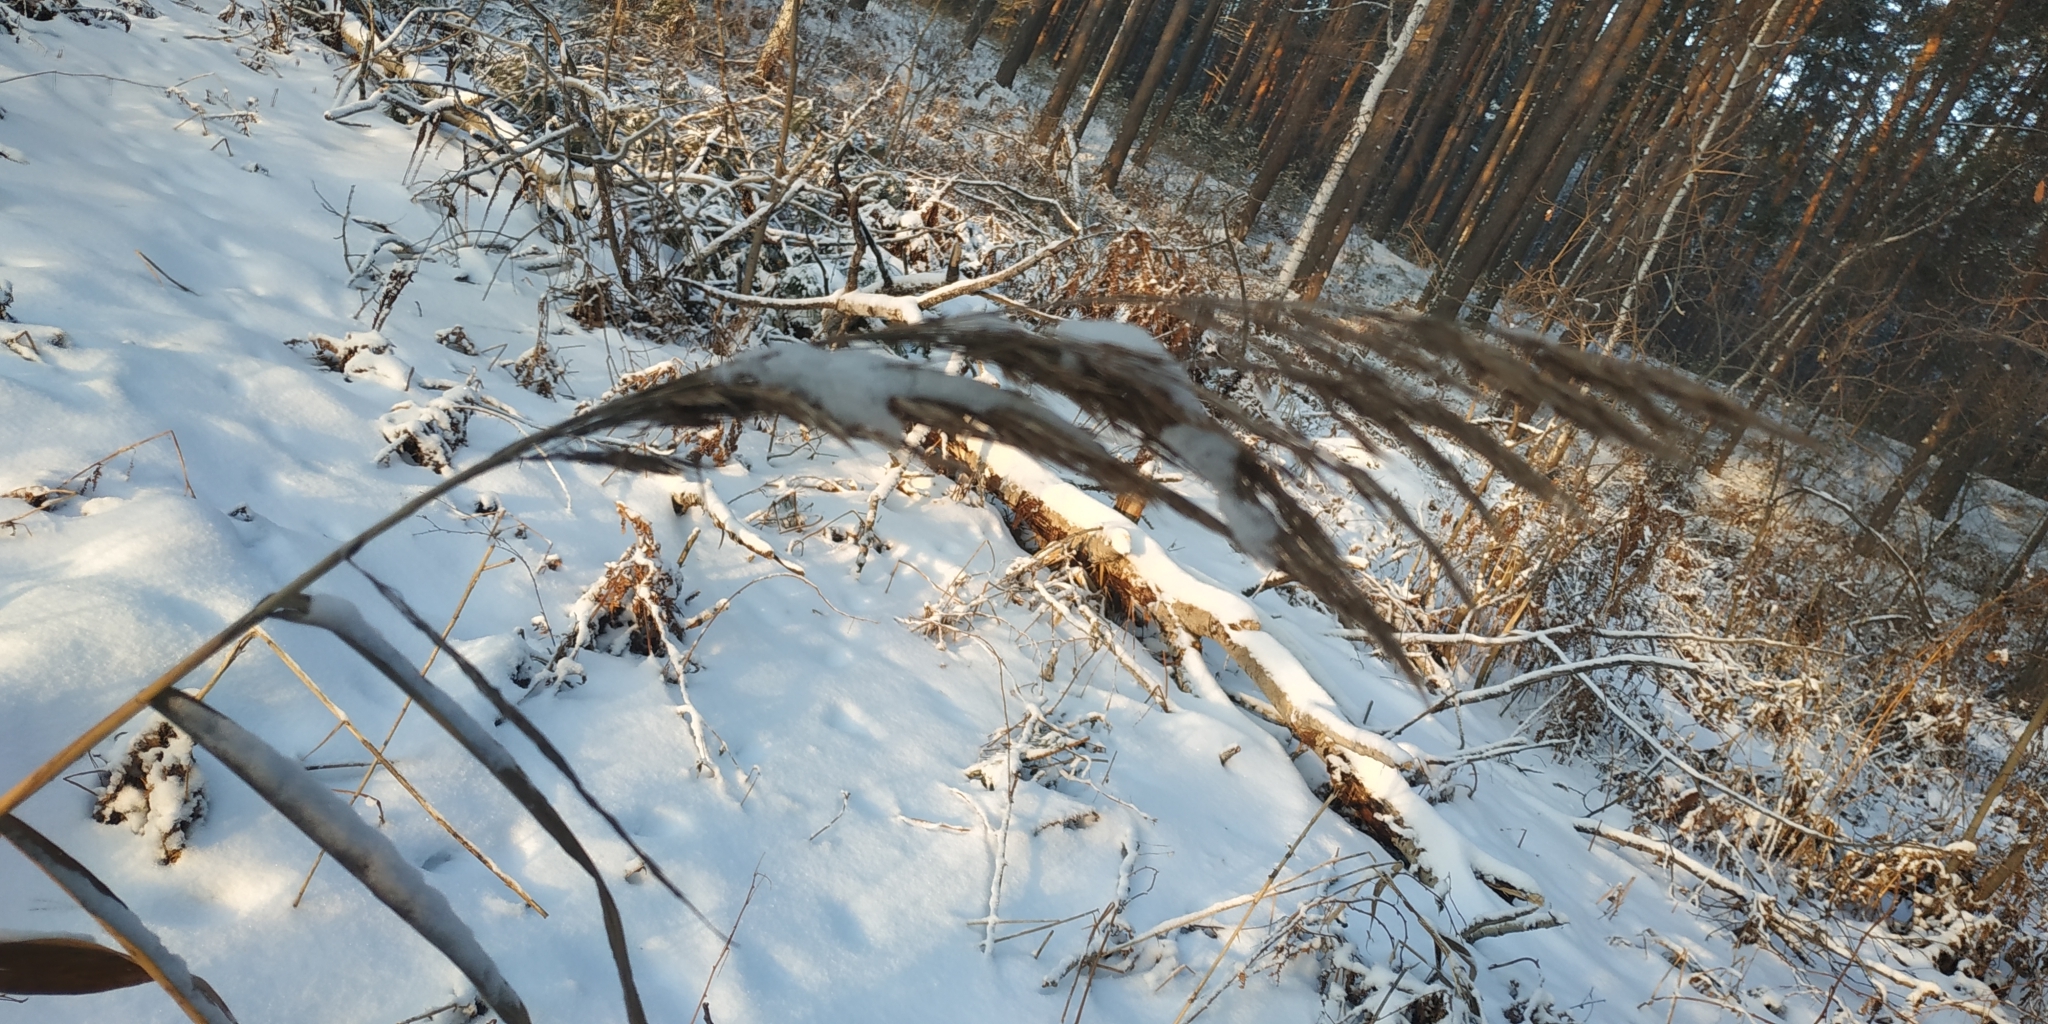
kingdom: Plantae
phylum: Tracheophyta
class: Liliopsida
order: Poales
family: Poaceae
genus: Phragmites
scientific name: Phragmites australis
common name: Common reed
